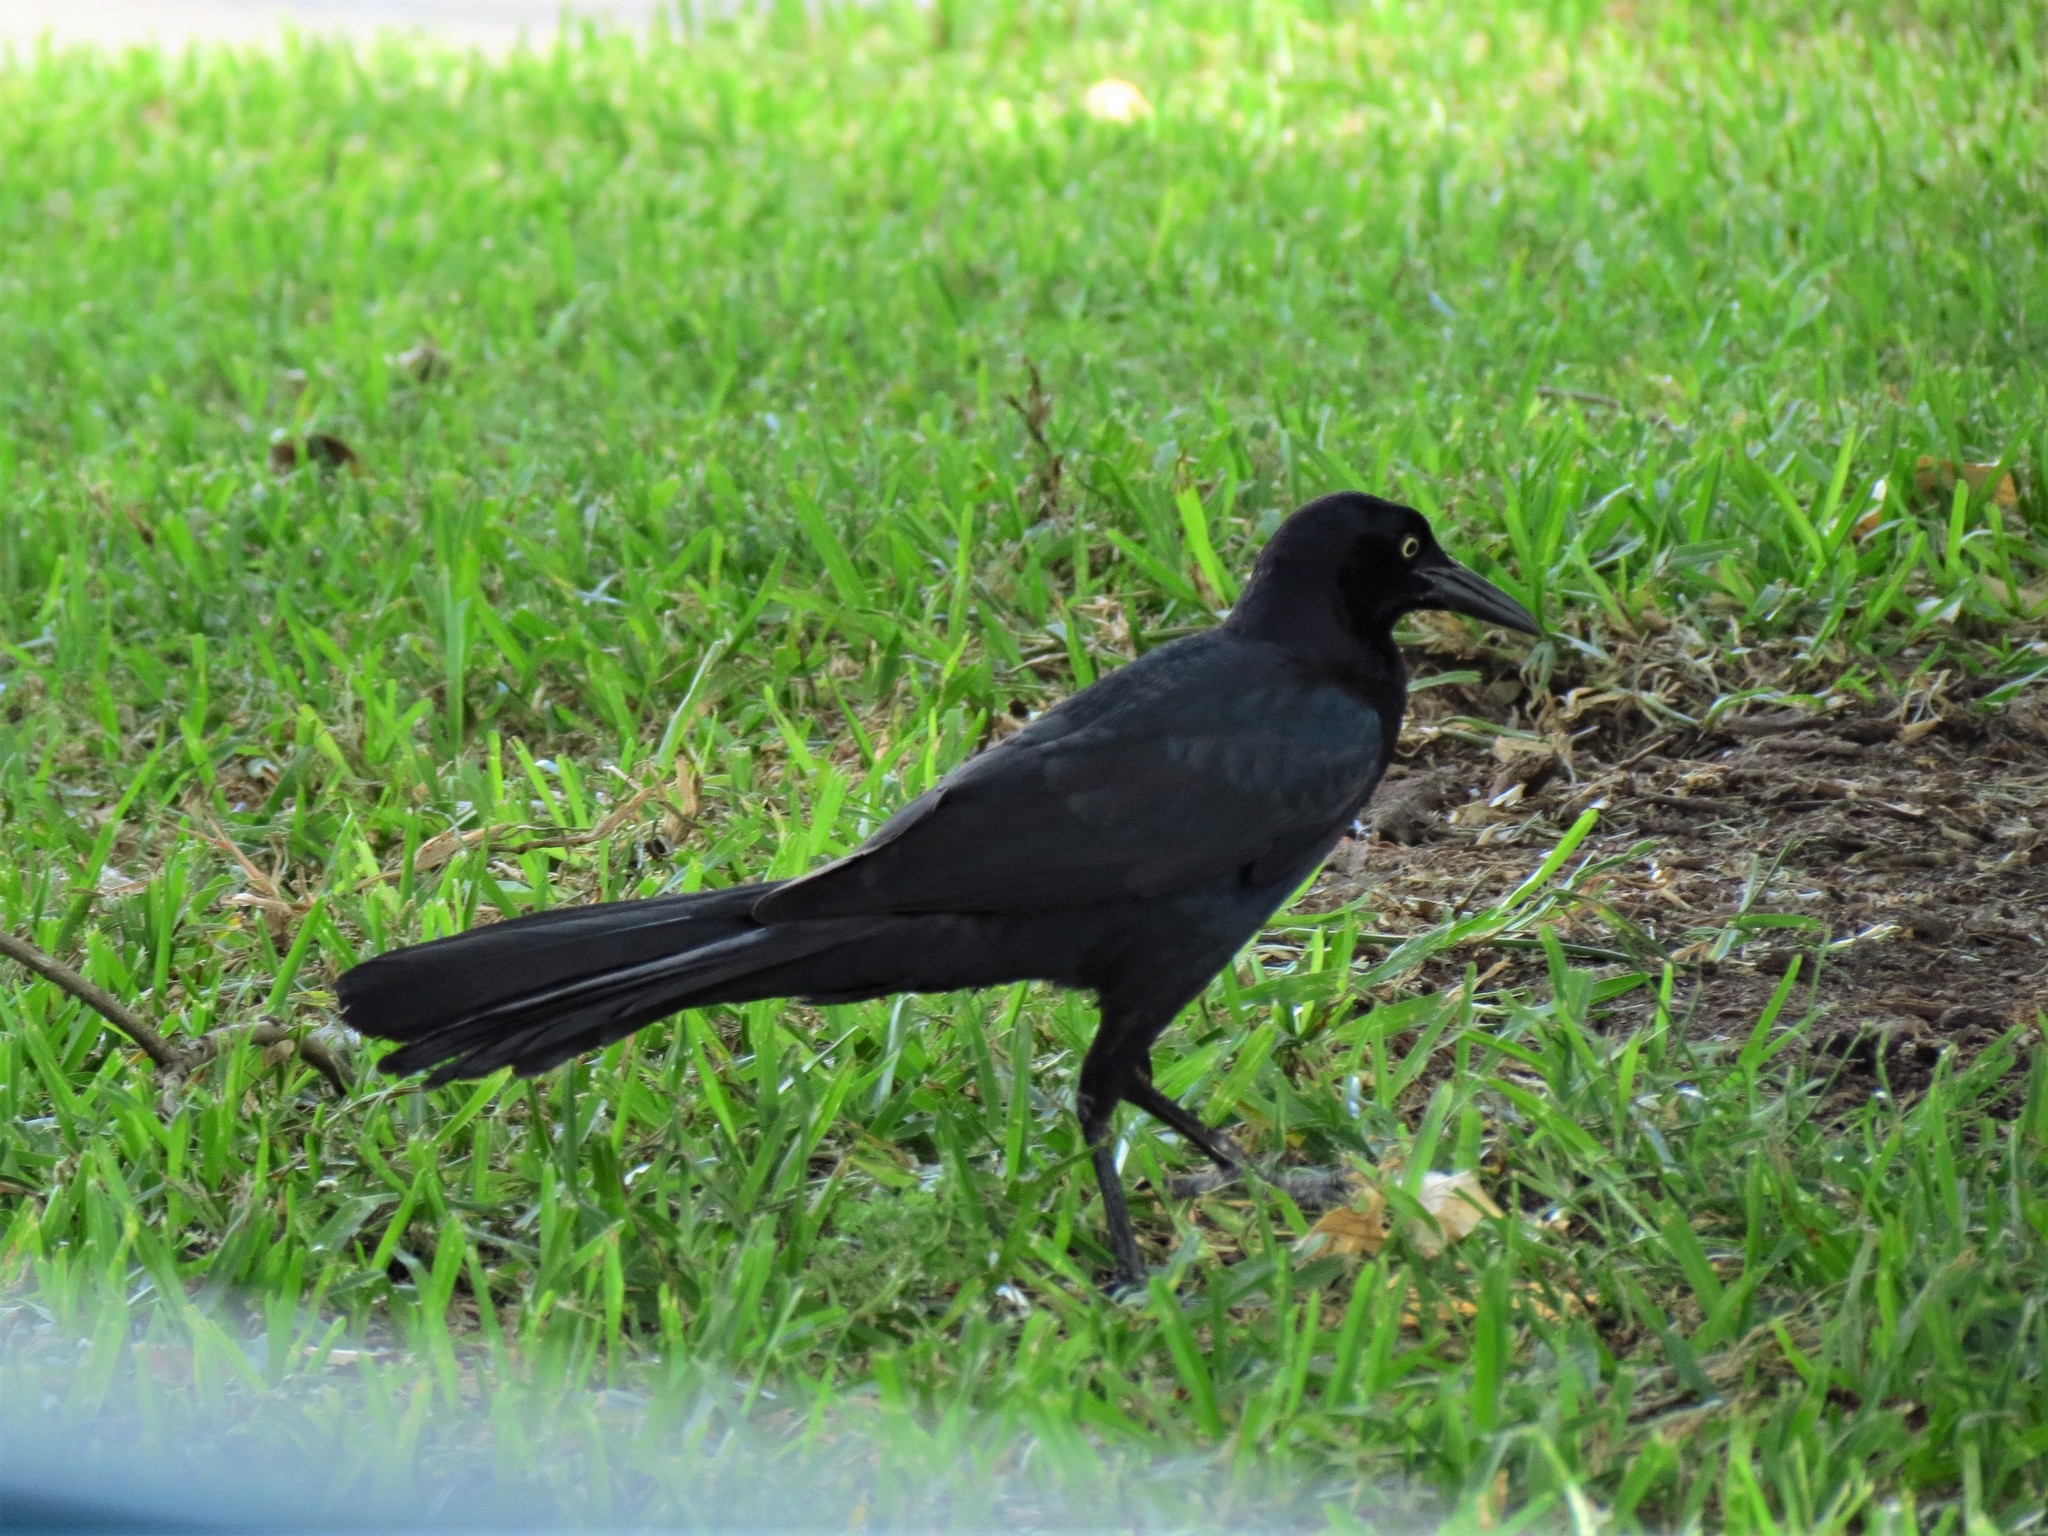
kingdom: Animalia
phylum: Chordata
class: Aves
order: Passeriformes
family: Icteridae
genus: Quiscalus
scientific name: Quiscalus mexicanus
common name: Great-tailed grackle
